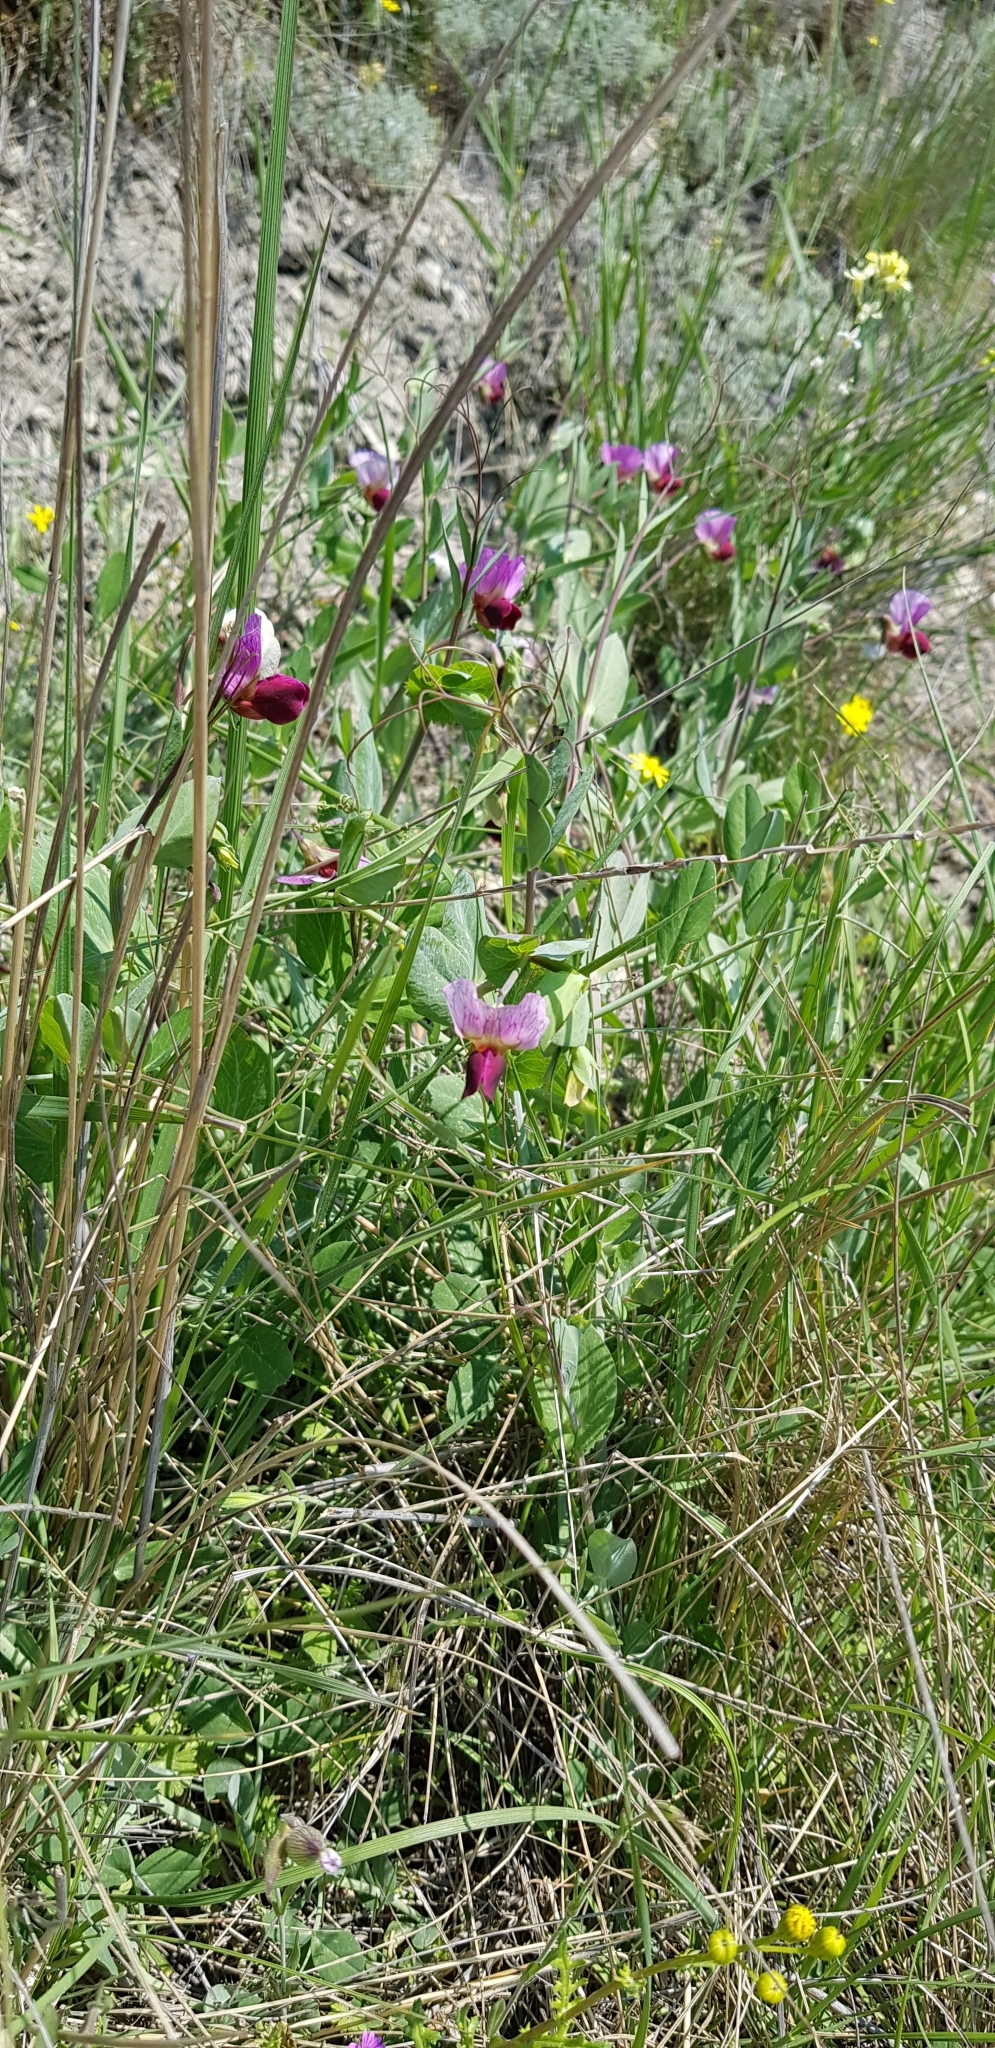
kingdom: Plantae
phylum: Tracheophyta
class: Magnoliopsida
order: Fabales
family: Fabaceae
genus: Lathyrus
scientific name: Lathyrus oleraceus
